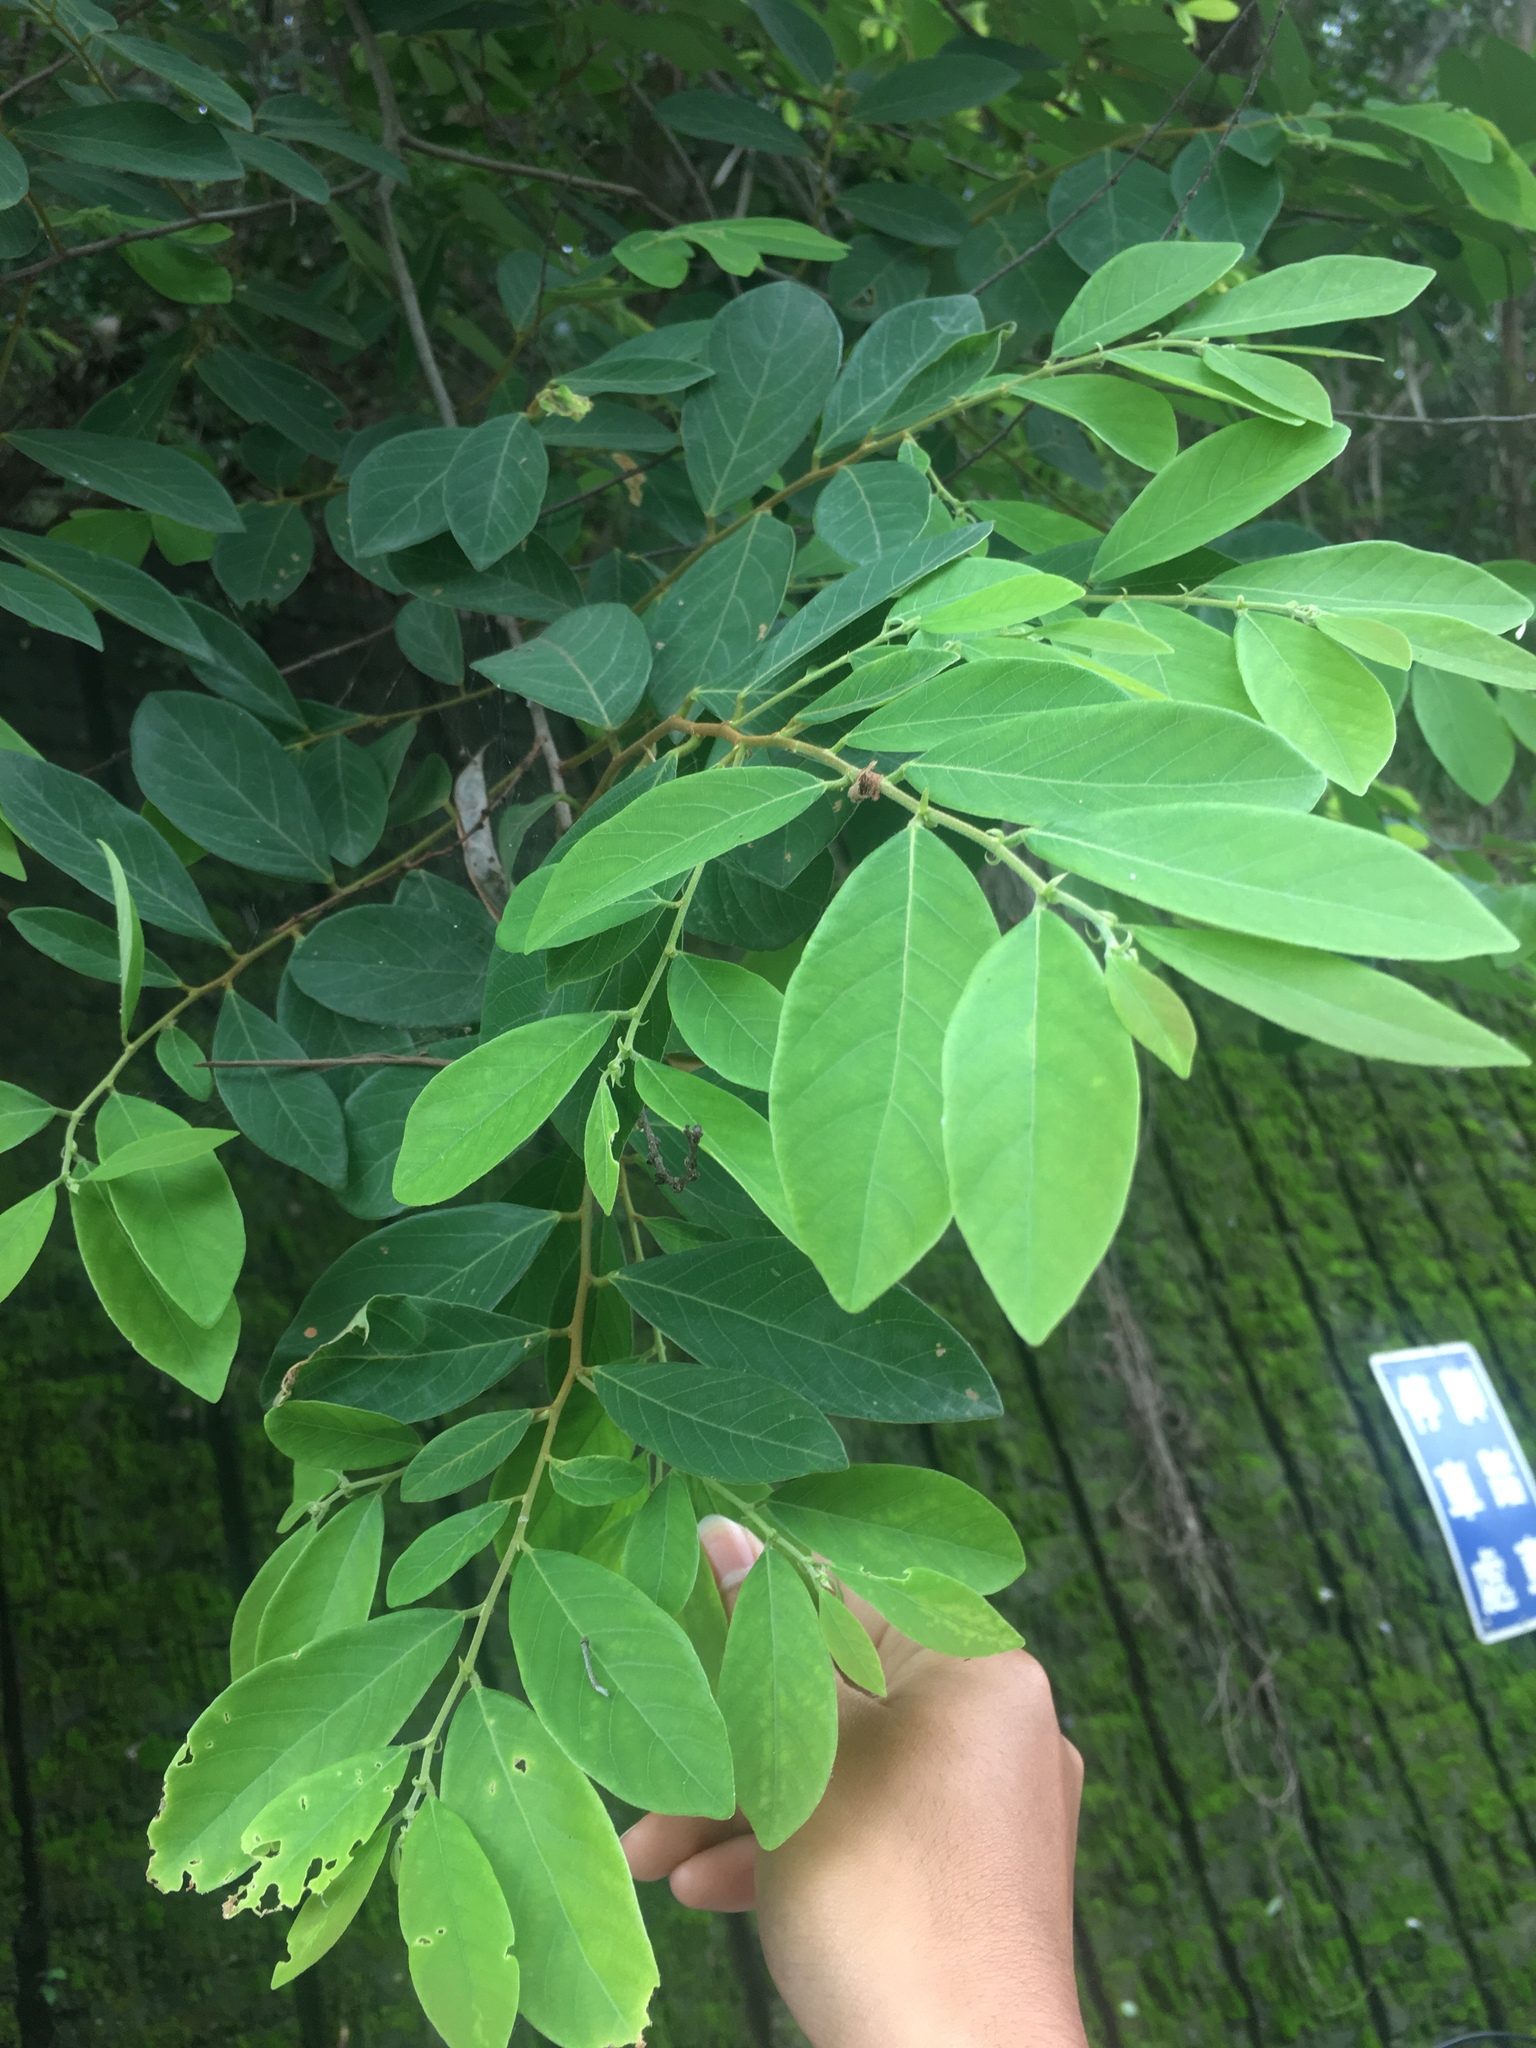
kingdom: Plantae
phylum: Tracheophyta
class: Magnoliopsida
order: Malpighiales
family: Phyllanthaceae
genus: Bridelia
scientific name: Bridelia tomentosa
